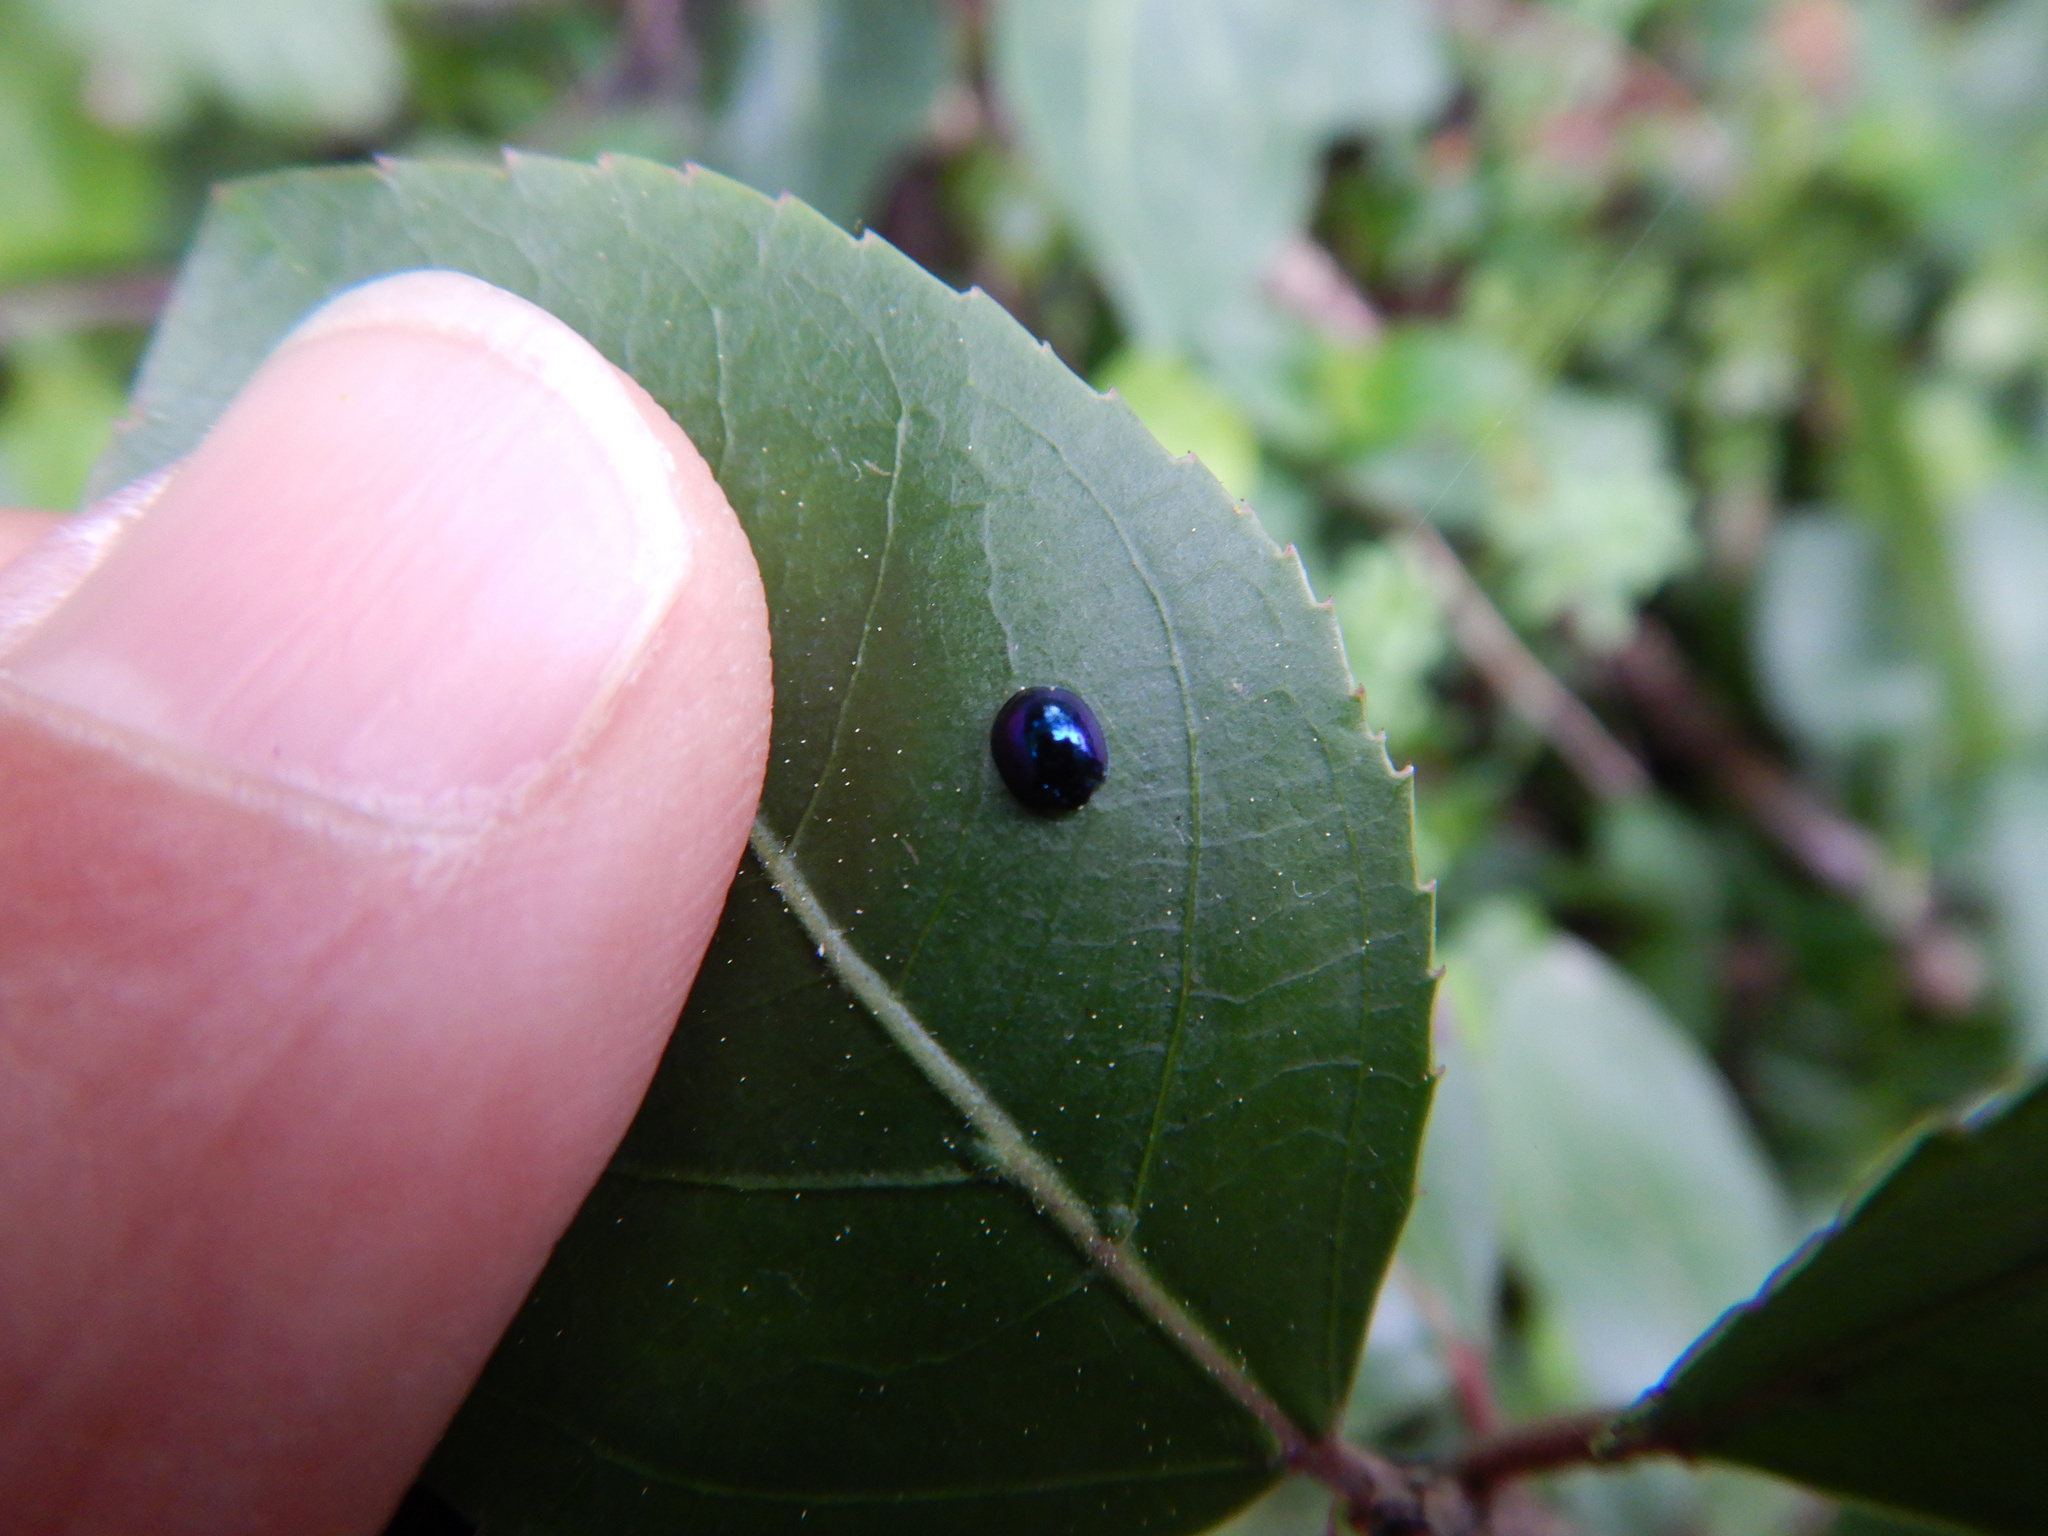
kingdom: Animalia
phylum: Arthropoda
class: Insecta
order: Coleoptera
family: Coccinellidae
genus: Halmus
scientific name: Halmus chalybeus
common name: Steel blue ladybird beetle
